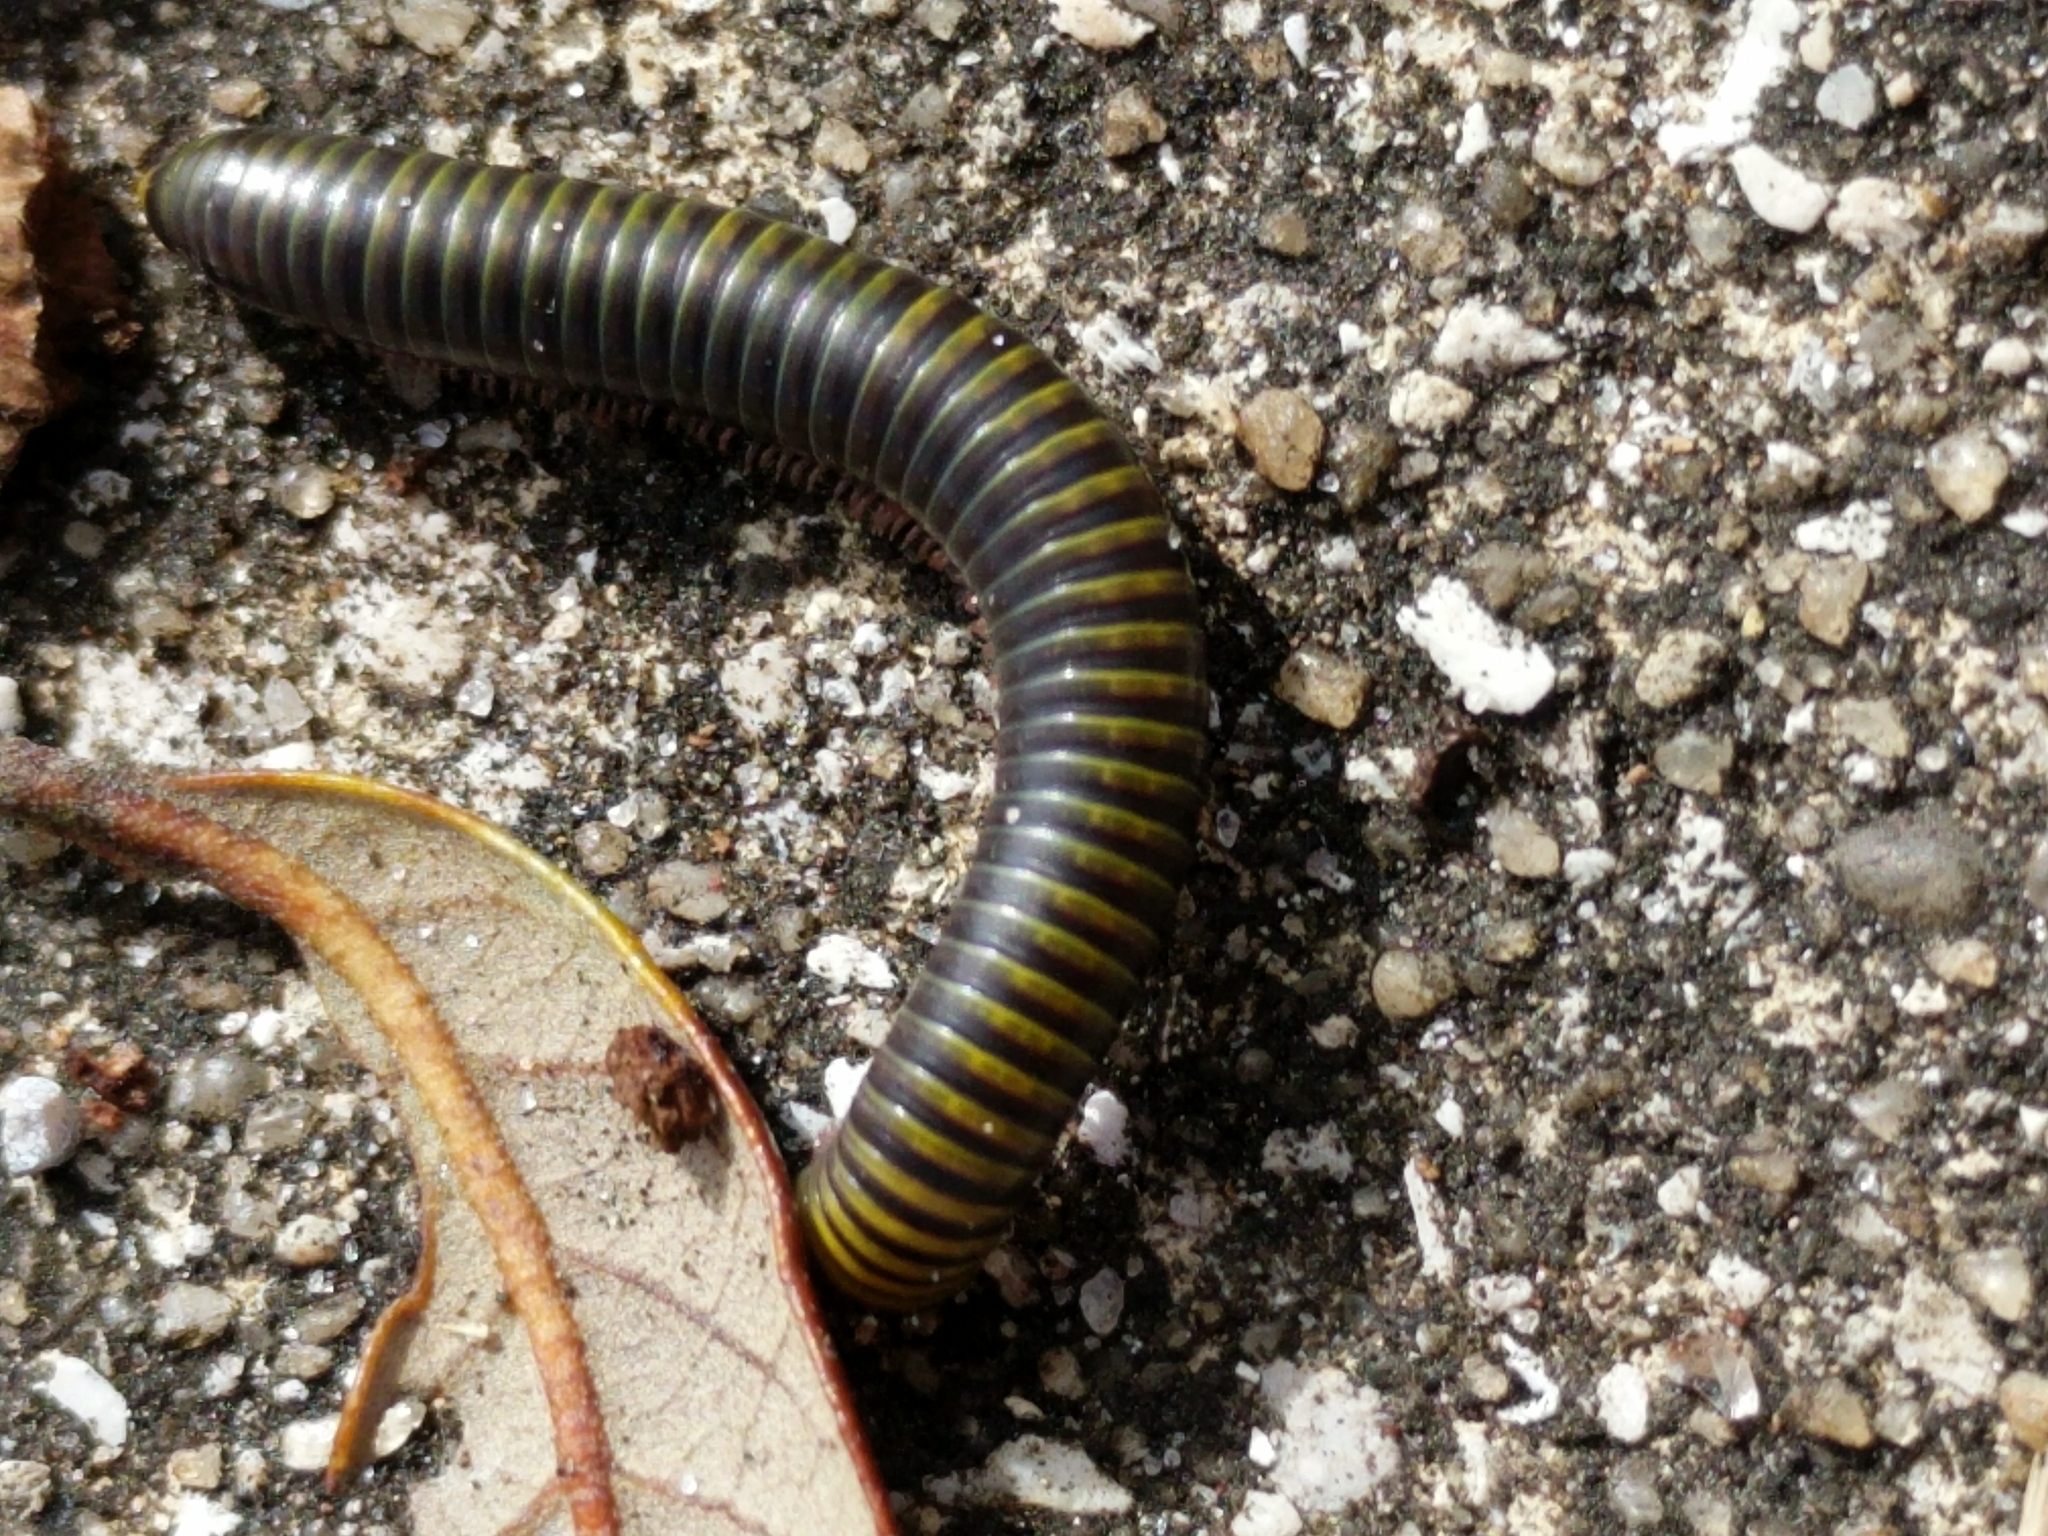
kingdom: Animalia
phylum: Arthropoda
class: Diplopoda
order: Spirobolida
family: Rhinocricidae
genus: Anadenobolus
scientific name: Anadenobolus monilicornis
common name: Caribbean millipede
